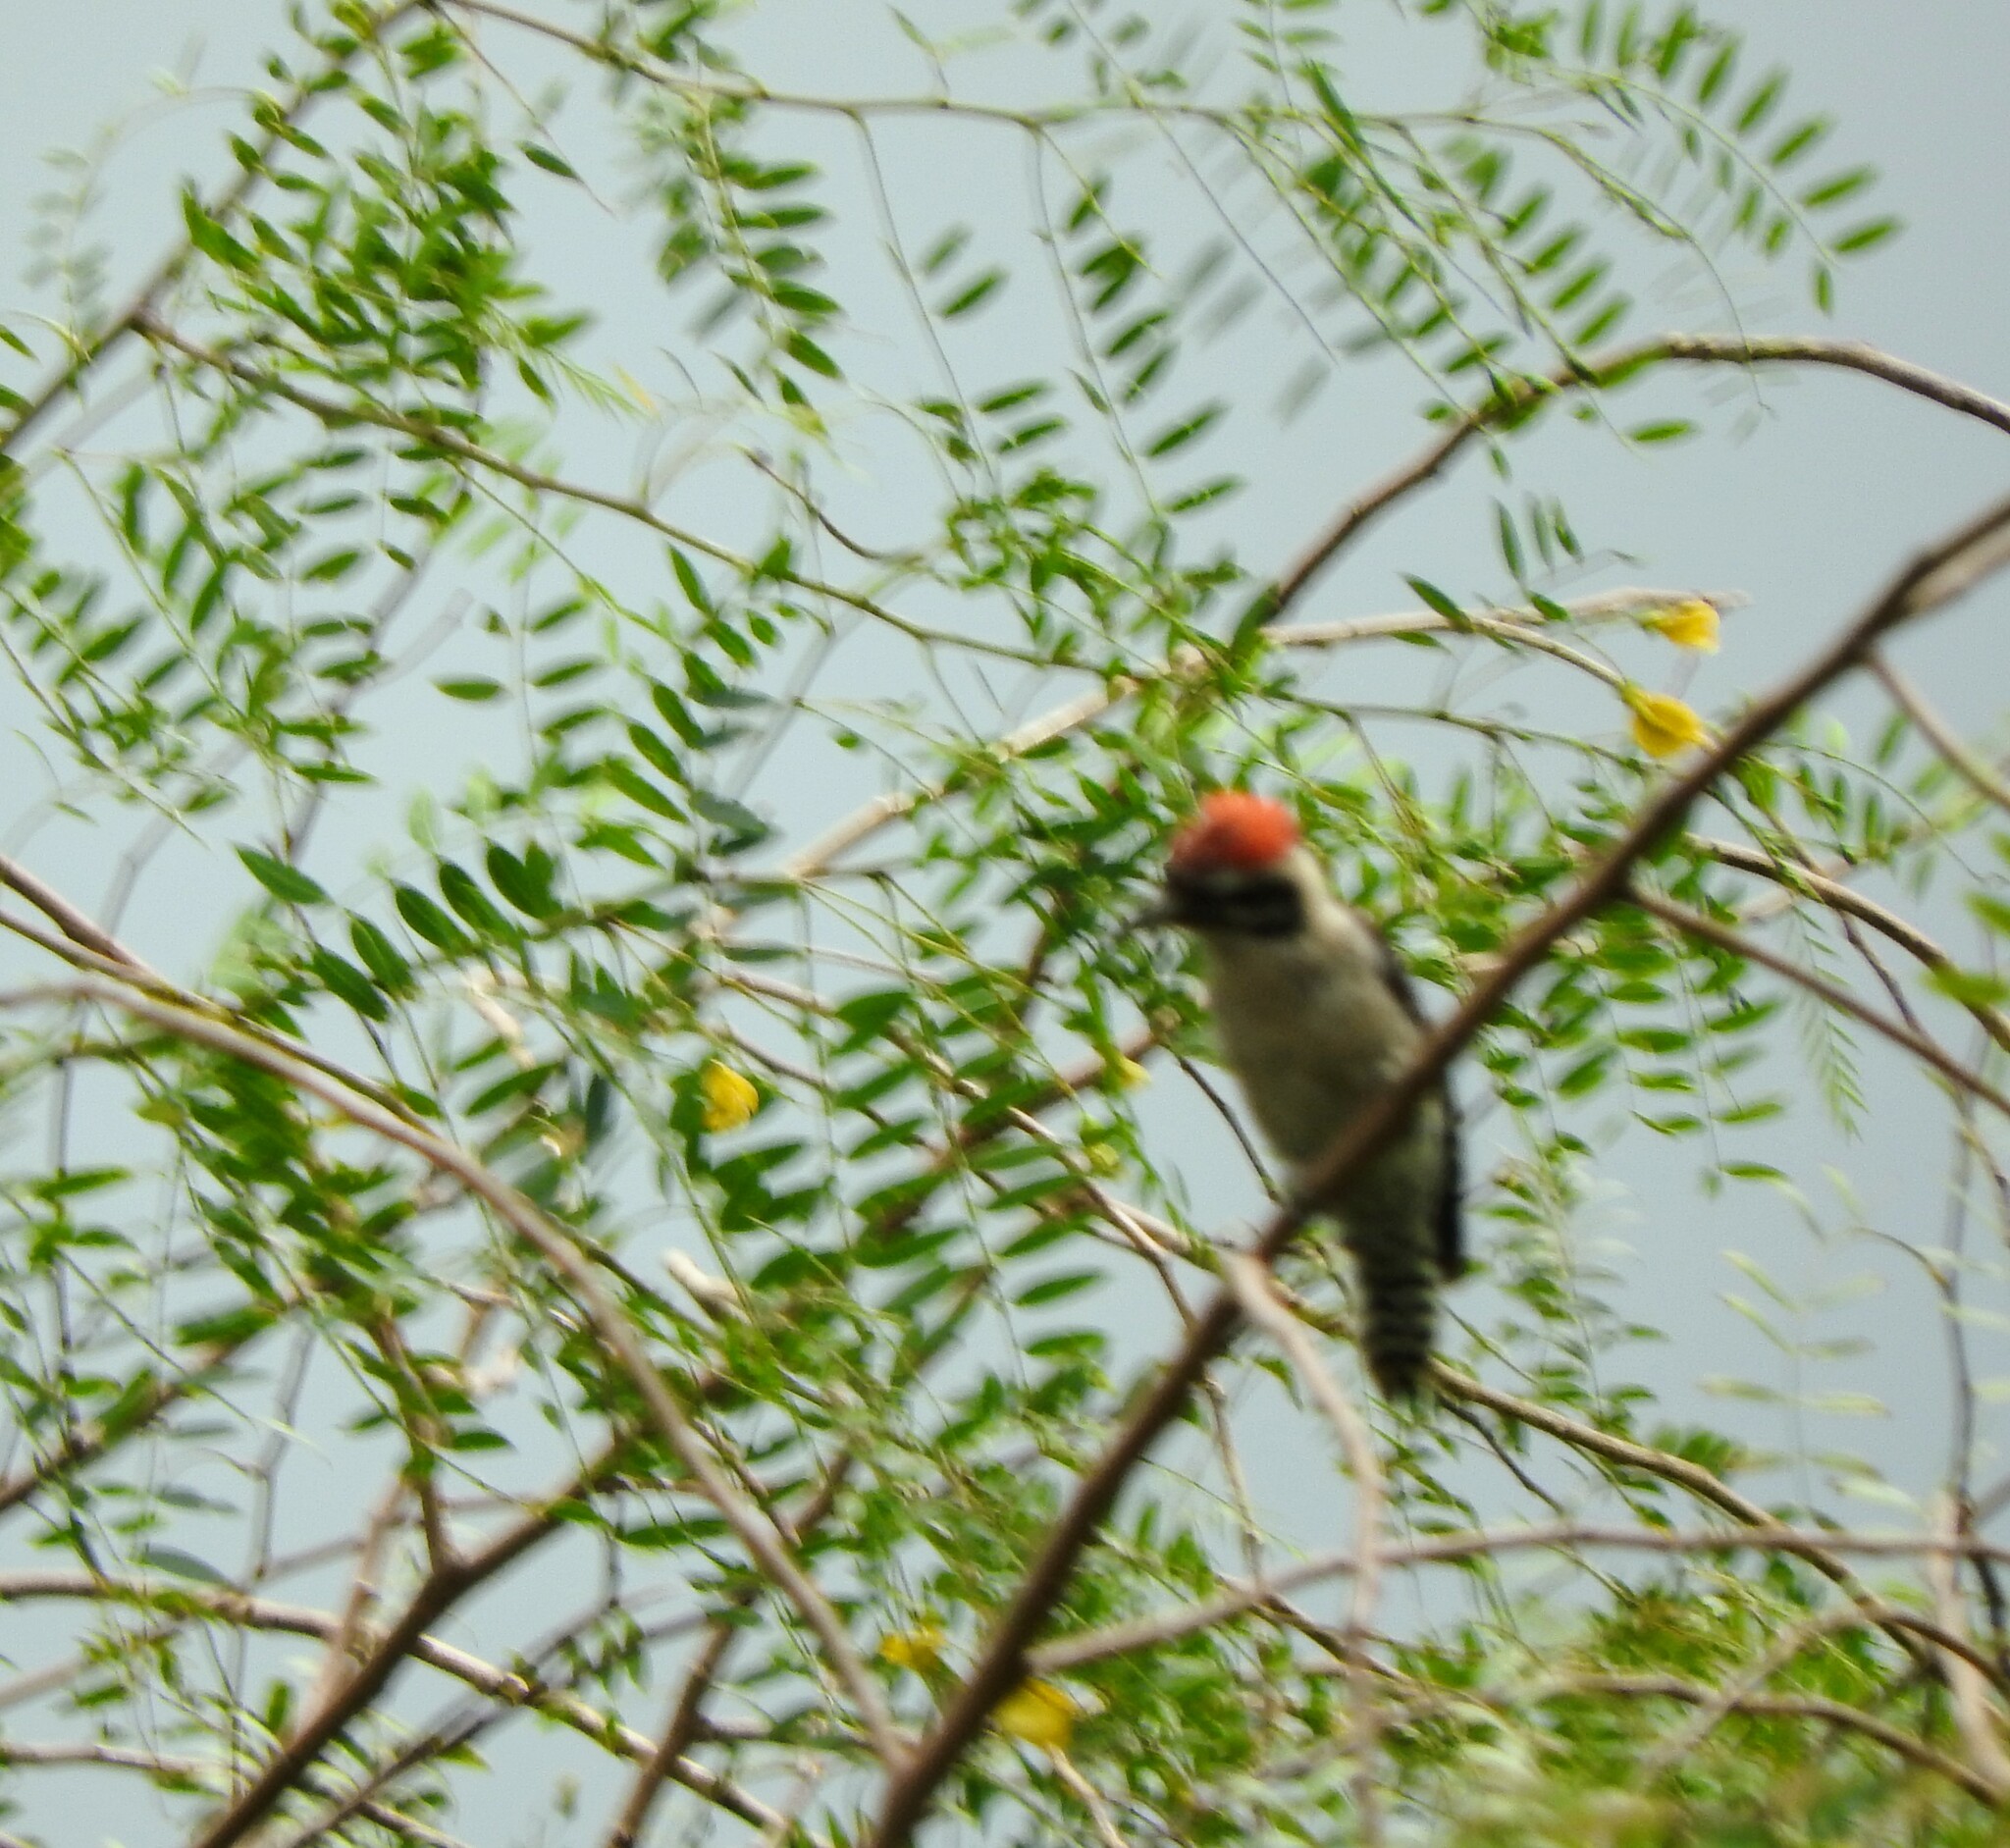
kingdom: Animalia
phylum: Chordata
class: Aves
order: Piciformes
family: Picidae
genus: Dryobates
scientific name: Dryobates scalaris
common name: Ladder-backed woodpecker
